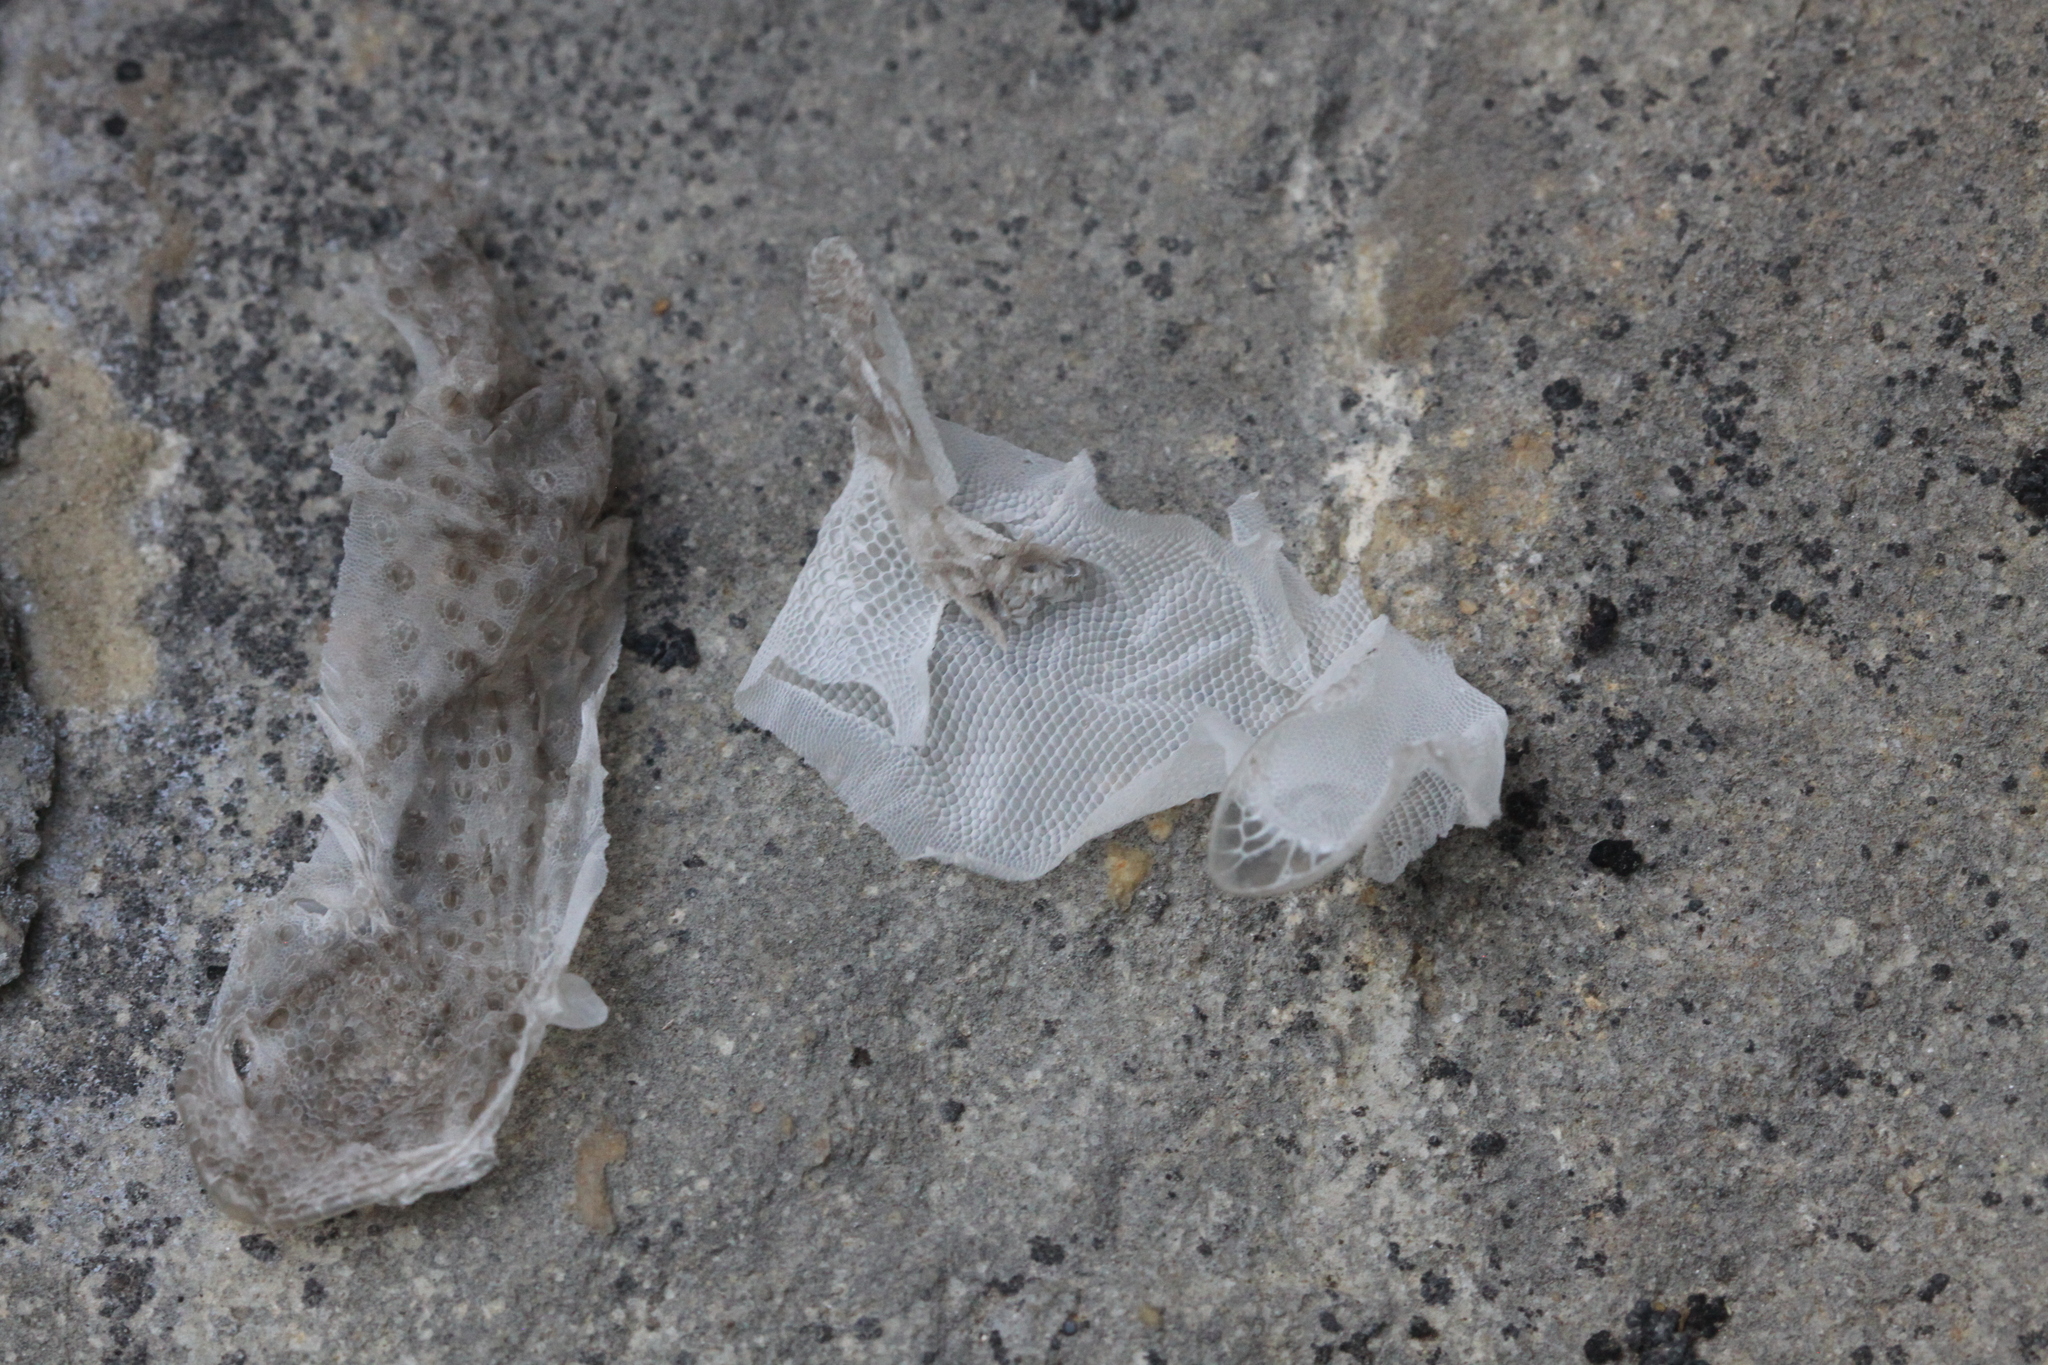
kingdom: Animalia
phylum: Chordata
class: Squamata
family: Phyllodactylidae
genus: Tarentola
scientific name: Tarentola mauritanica
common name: Moorish gecko
